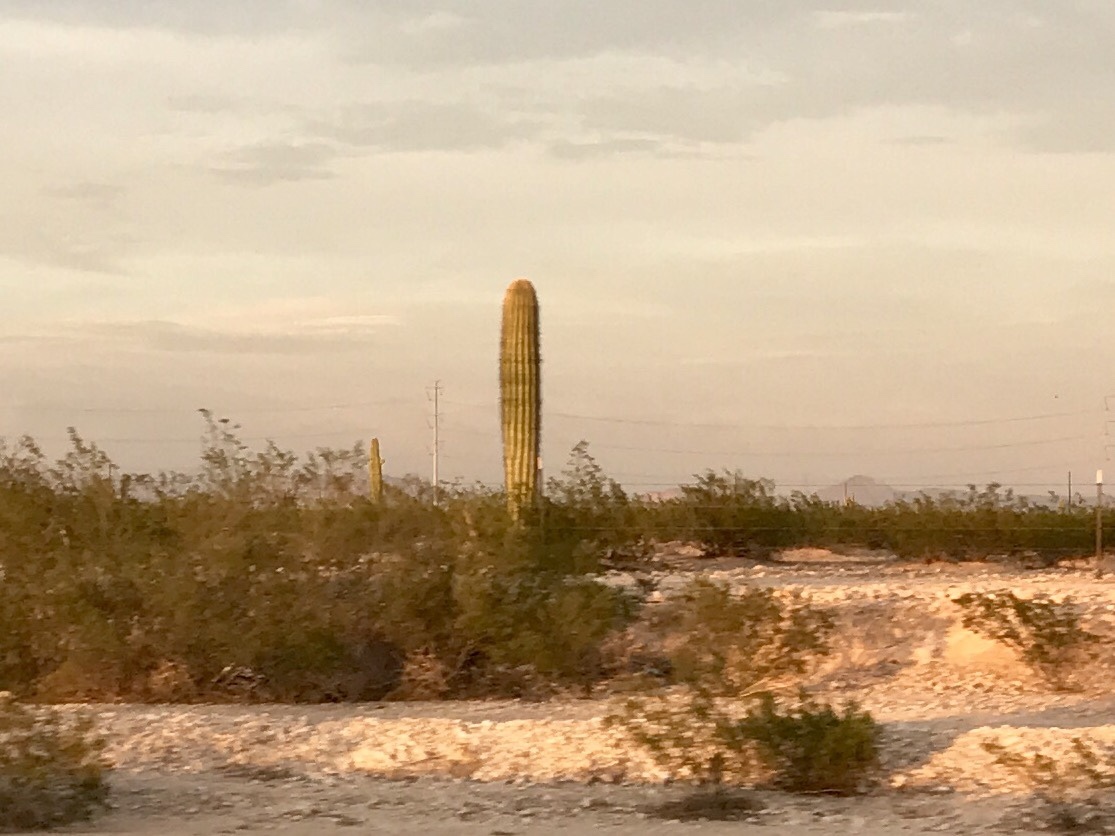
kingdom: Plantae
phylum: Tracheophyta
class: Magnoliopsida
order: Caryophyllales
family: Cactaceae
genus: Carnegiea
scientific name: Carnegiea gigantea
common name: Saguaro
